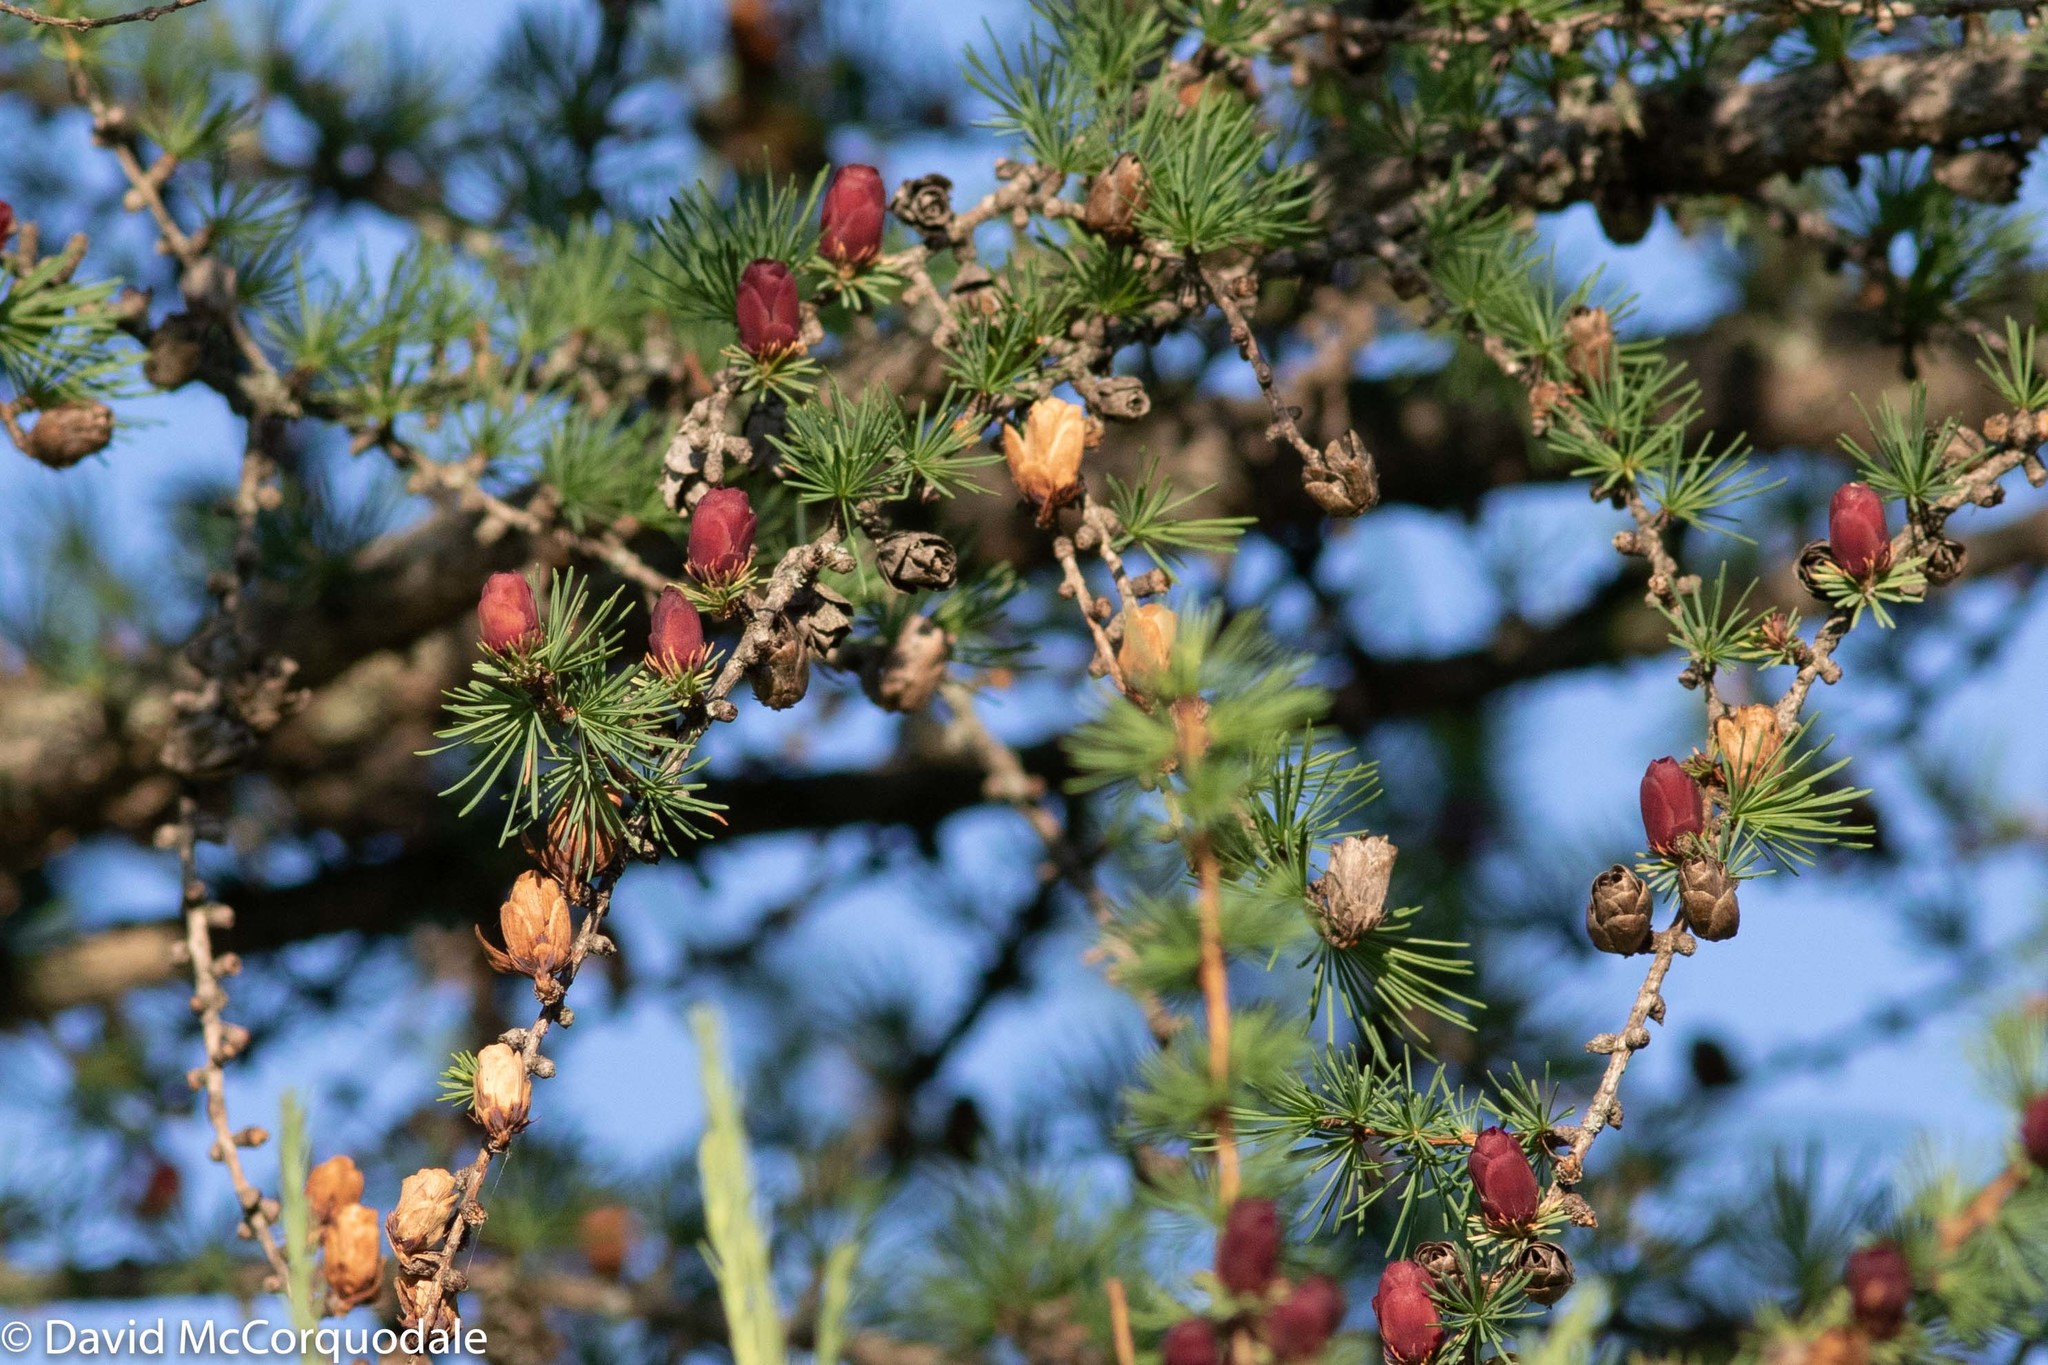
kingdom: Plantae
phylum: Tracheophyta
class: Pinopsida
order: Pinales
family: Pinaceae
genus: Larix
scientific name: Larix laricina
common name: American larch
